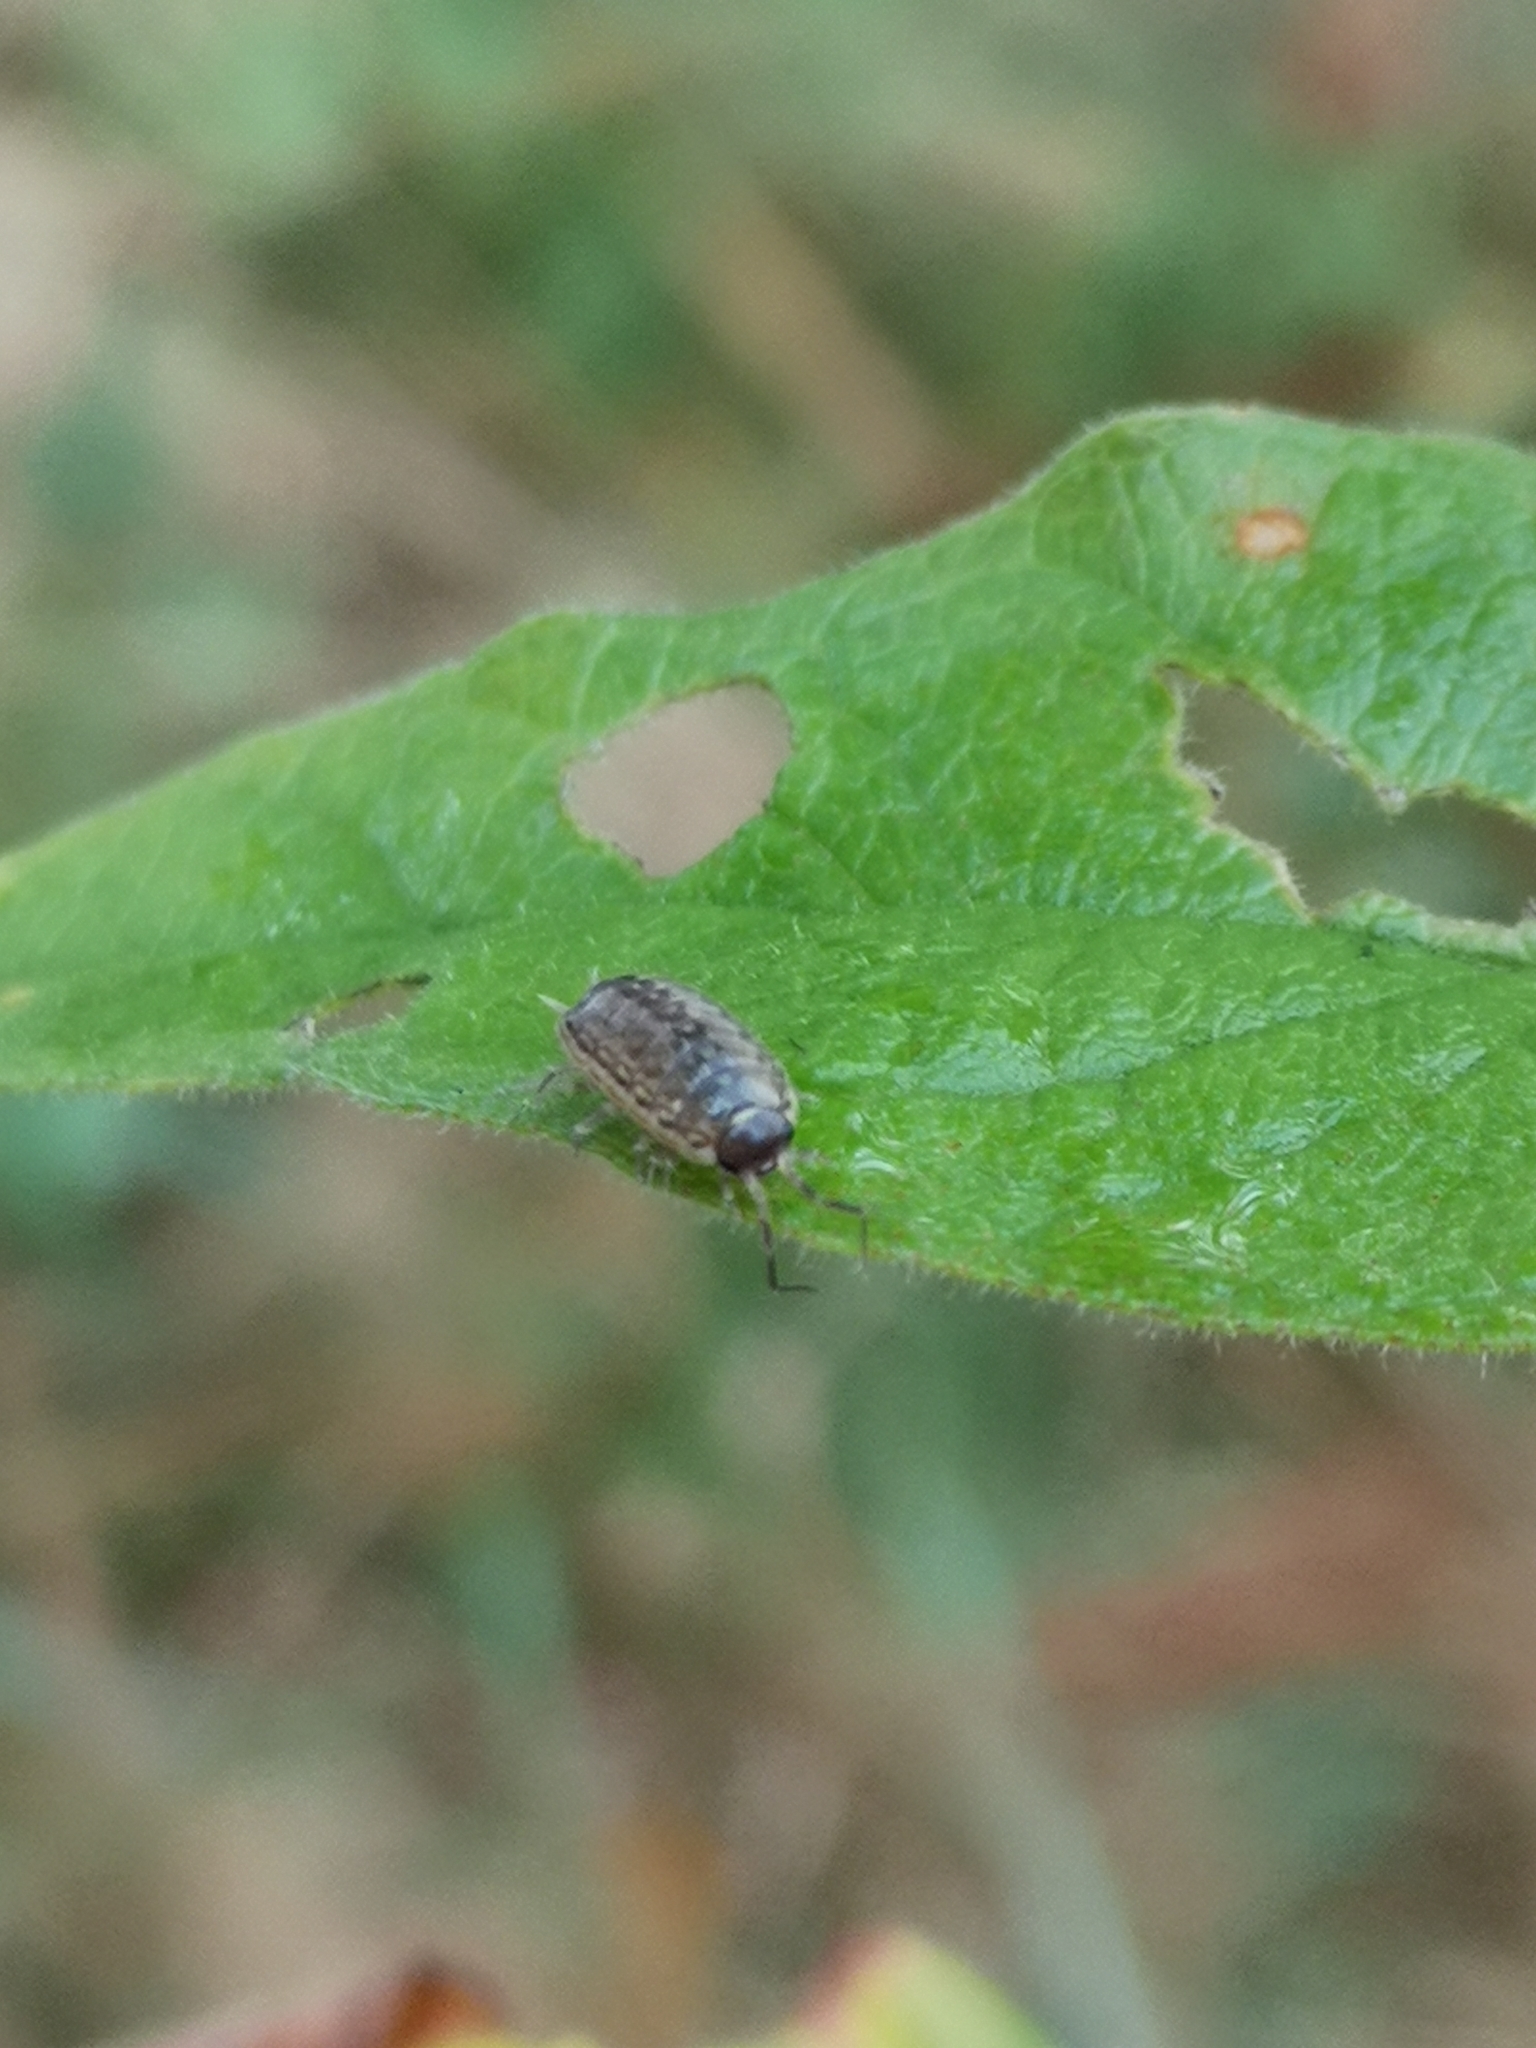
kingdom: Animalia
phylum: Arthropoda
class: Malacostraca
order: Isopoda
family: Philosciidae
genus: Philoscia
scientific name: Philoscia muscorum
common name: Common striped woodlouse
